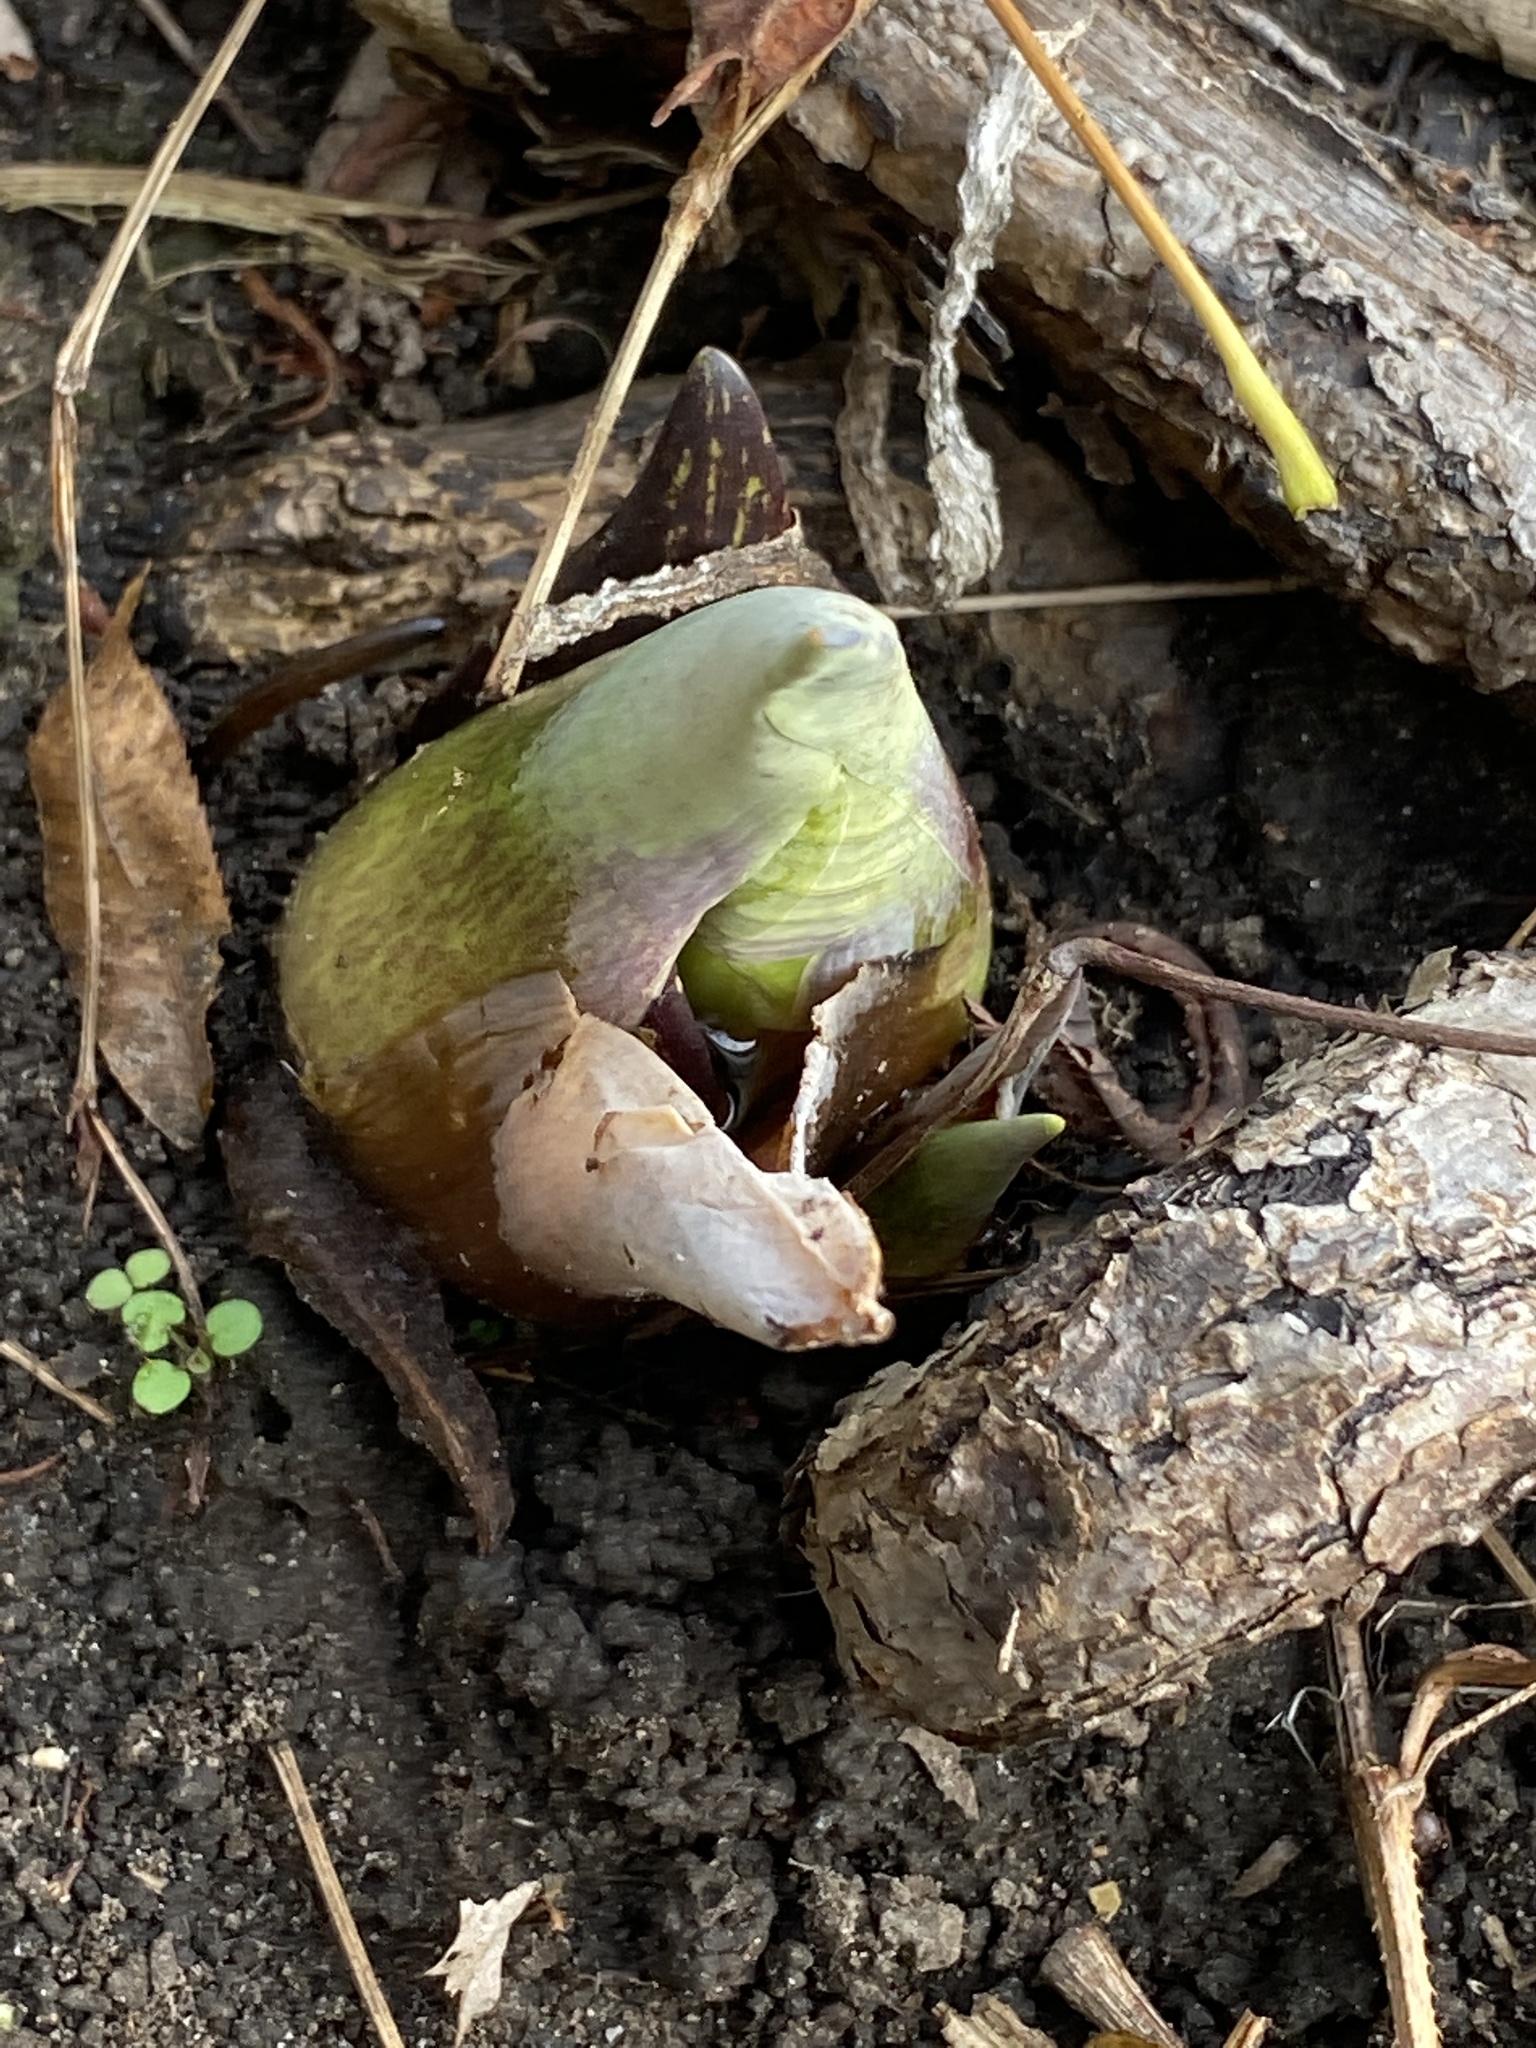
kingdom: Plantae
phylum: Tracheophyta
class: Liliopsida
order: Alismatales
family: Araceae
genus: Symplocarpus
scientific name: Symplocarpus foetidus
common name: Eastern skunk cabbage
